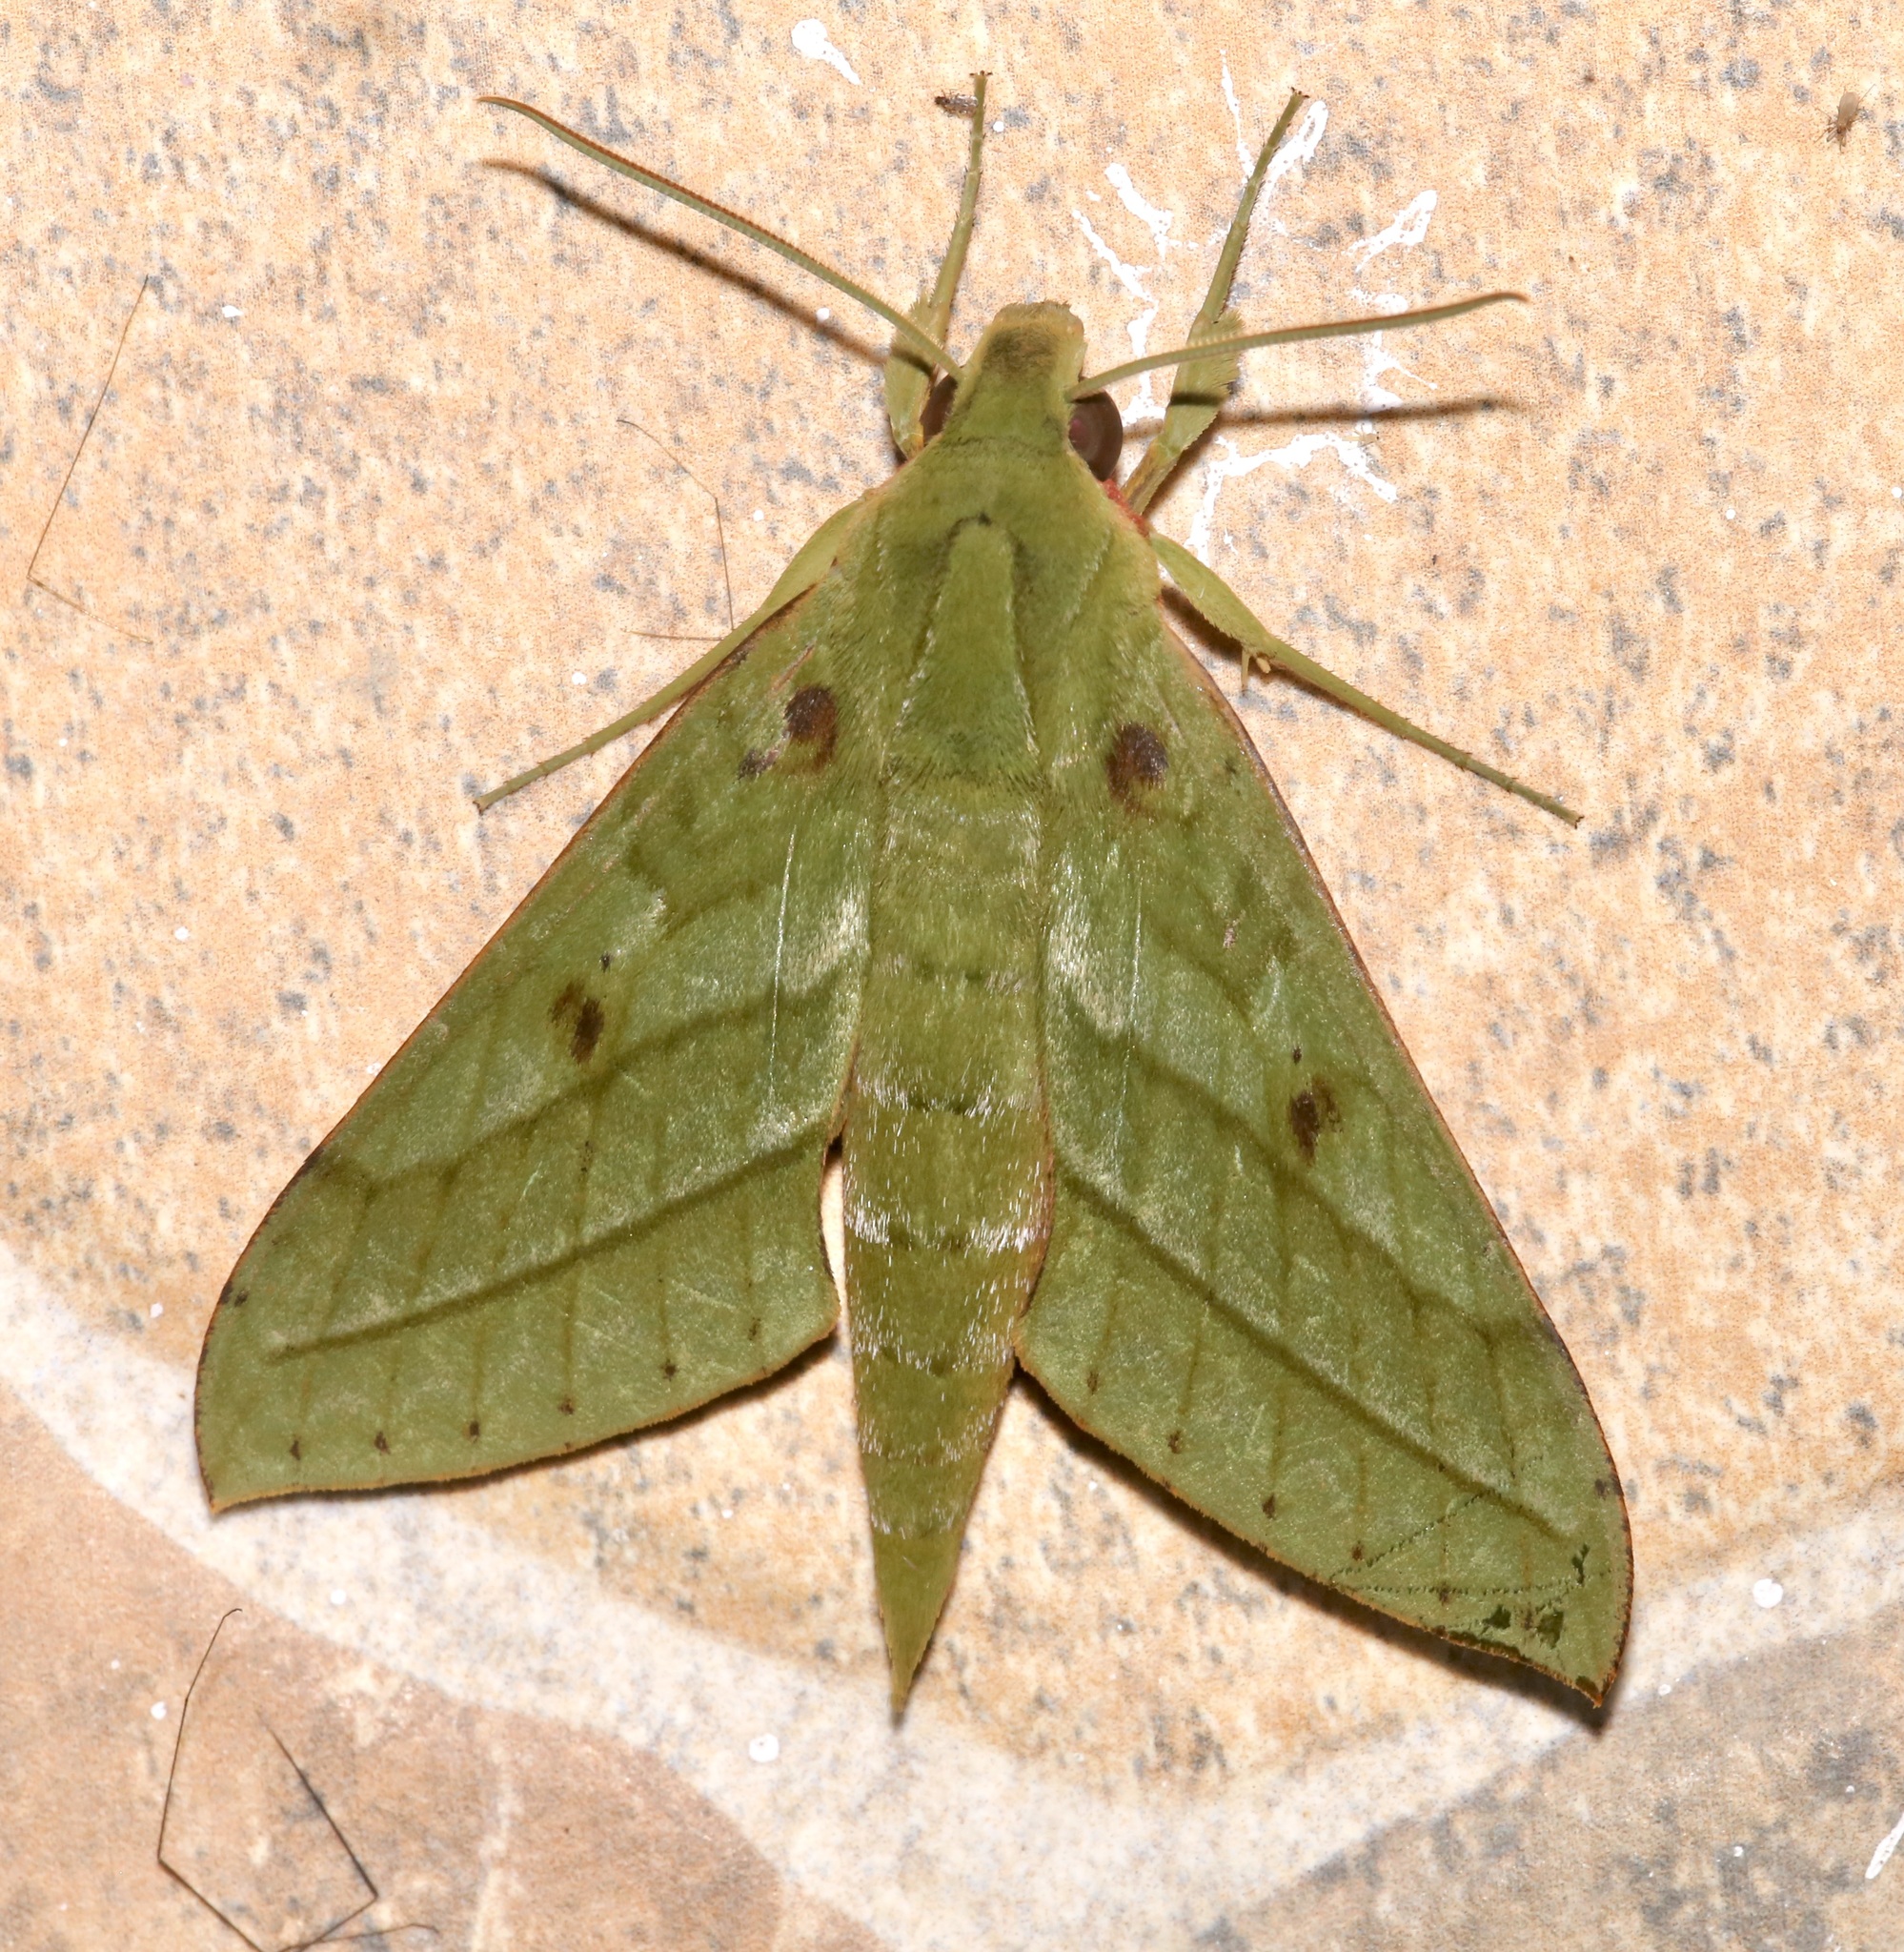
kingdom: Animalia
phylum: Arthropoda
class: Insecta
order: Lepidoptera
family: Sphingidae
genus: Xylophanes
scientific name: Xylophanes mirabilis
